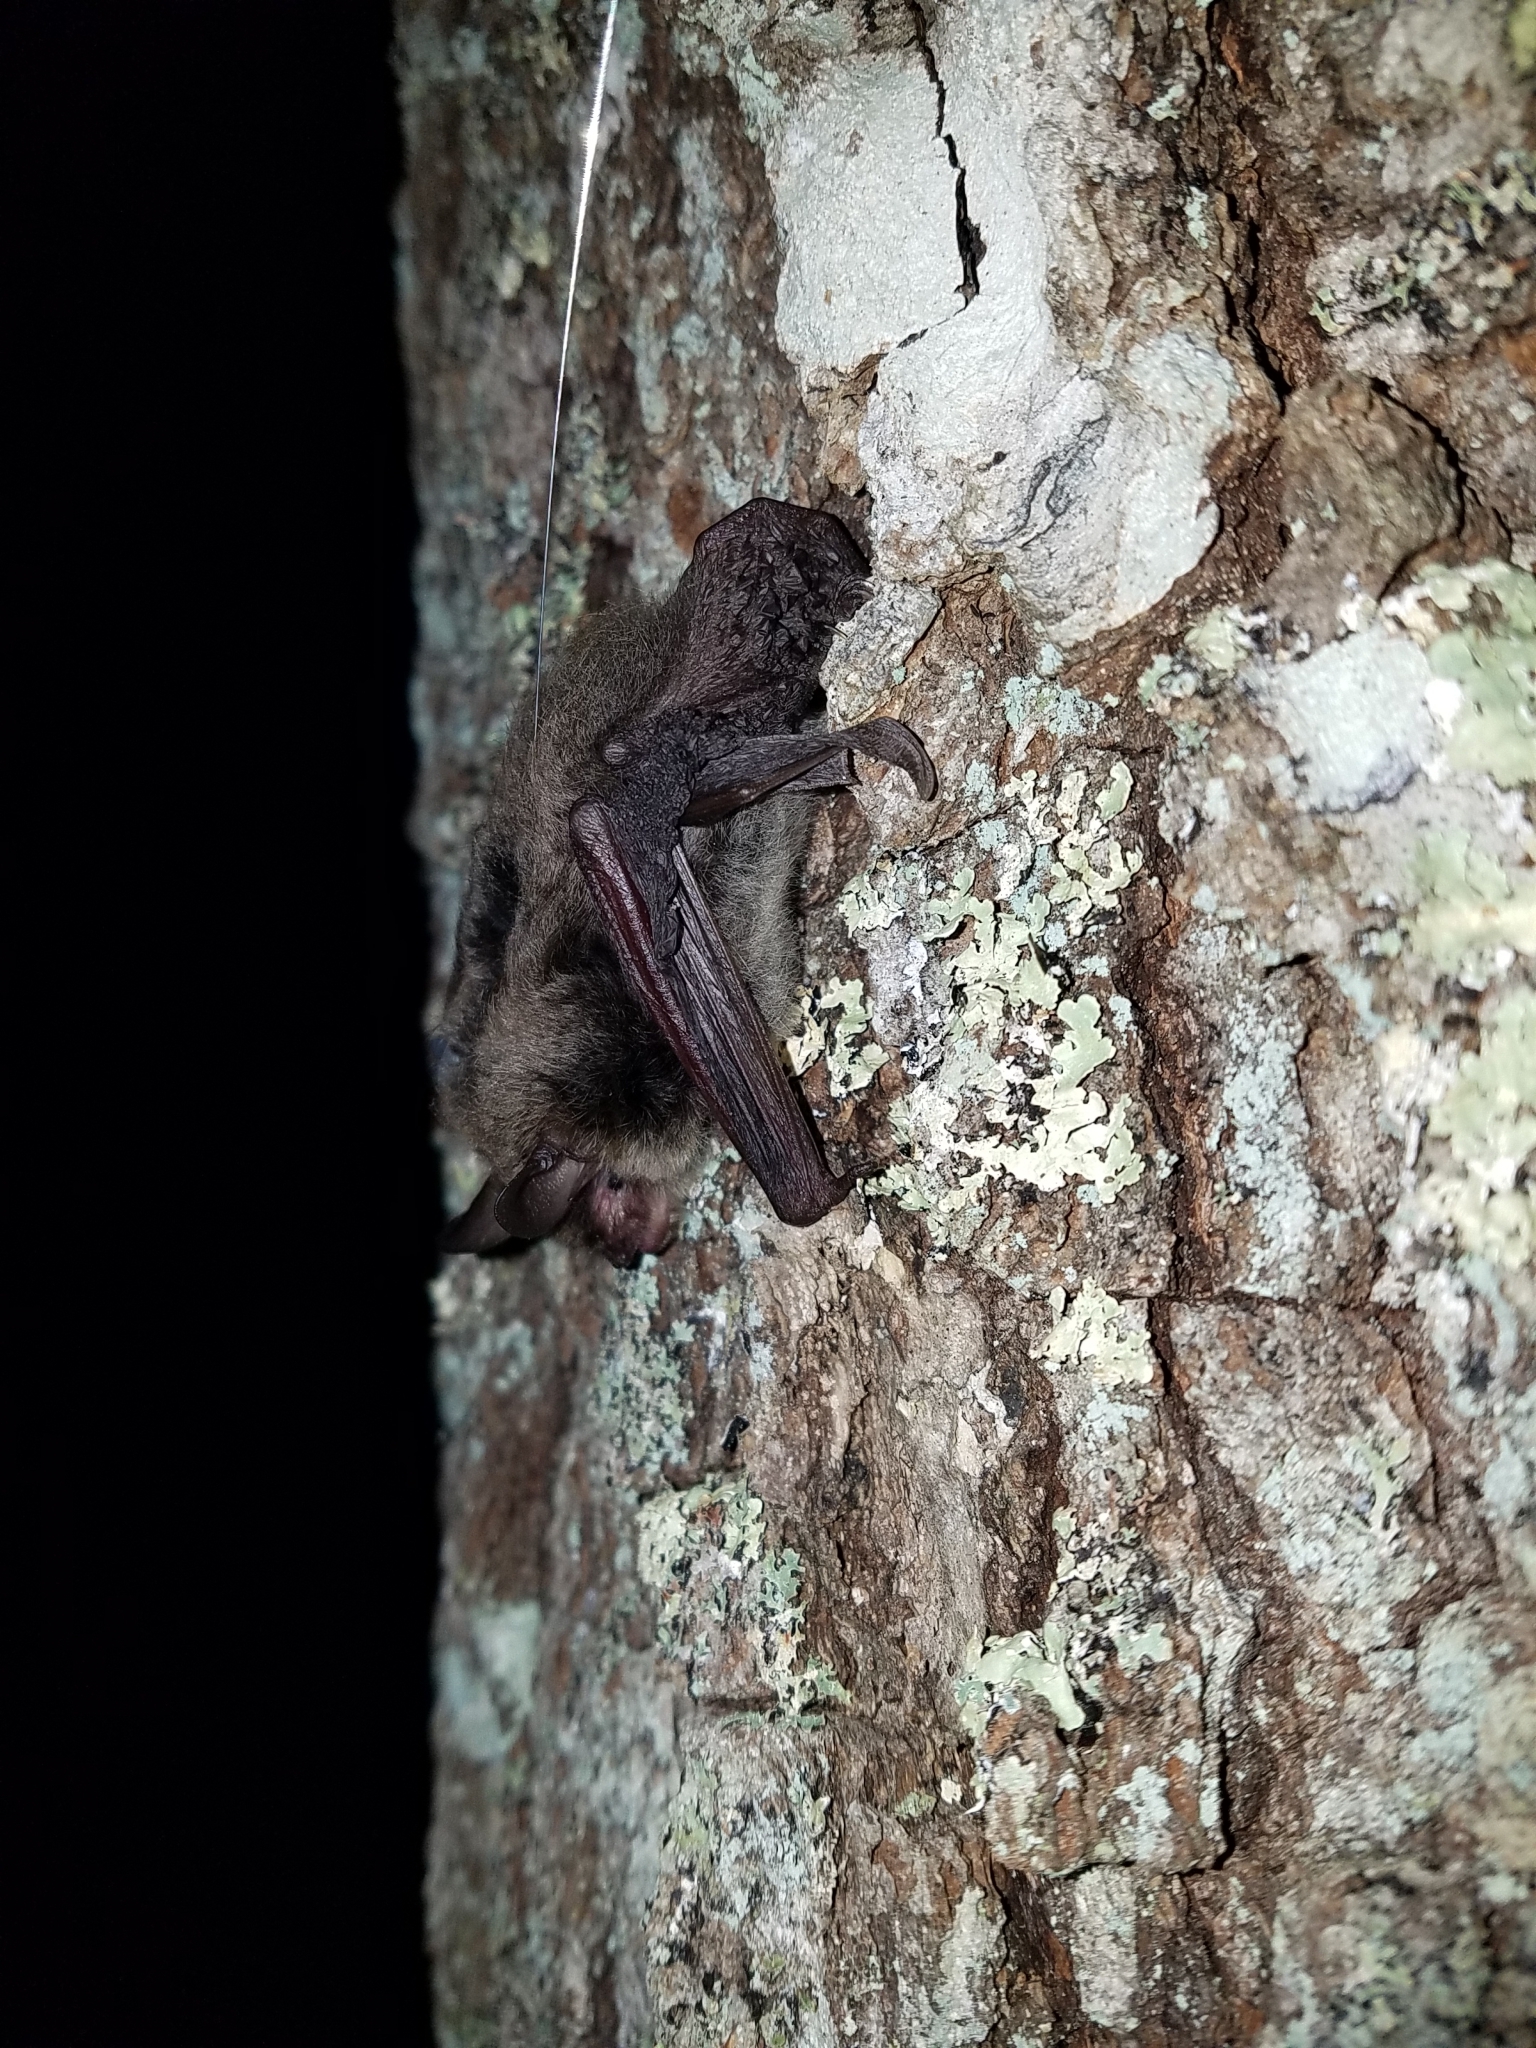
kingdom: Animalia
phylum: Chordata
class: Mammalia
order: Chiroptera
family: Vespertilionidae
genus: Myotis
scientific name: Myotis septentrionalis
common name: Northern myotis
